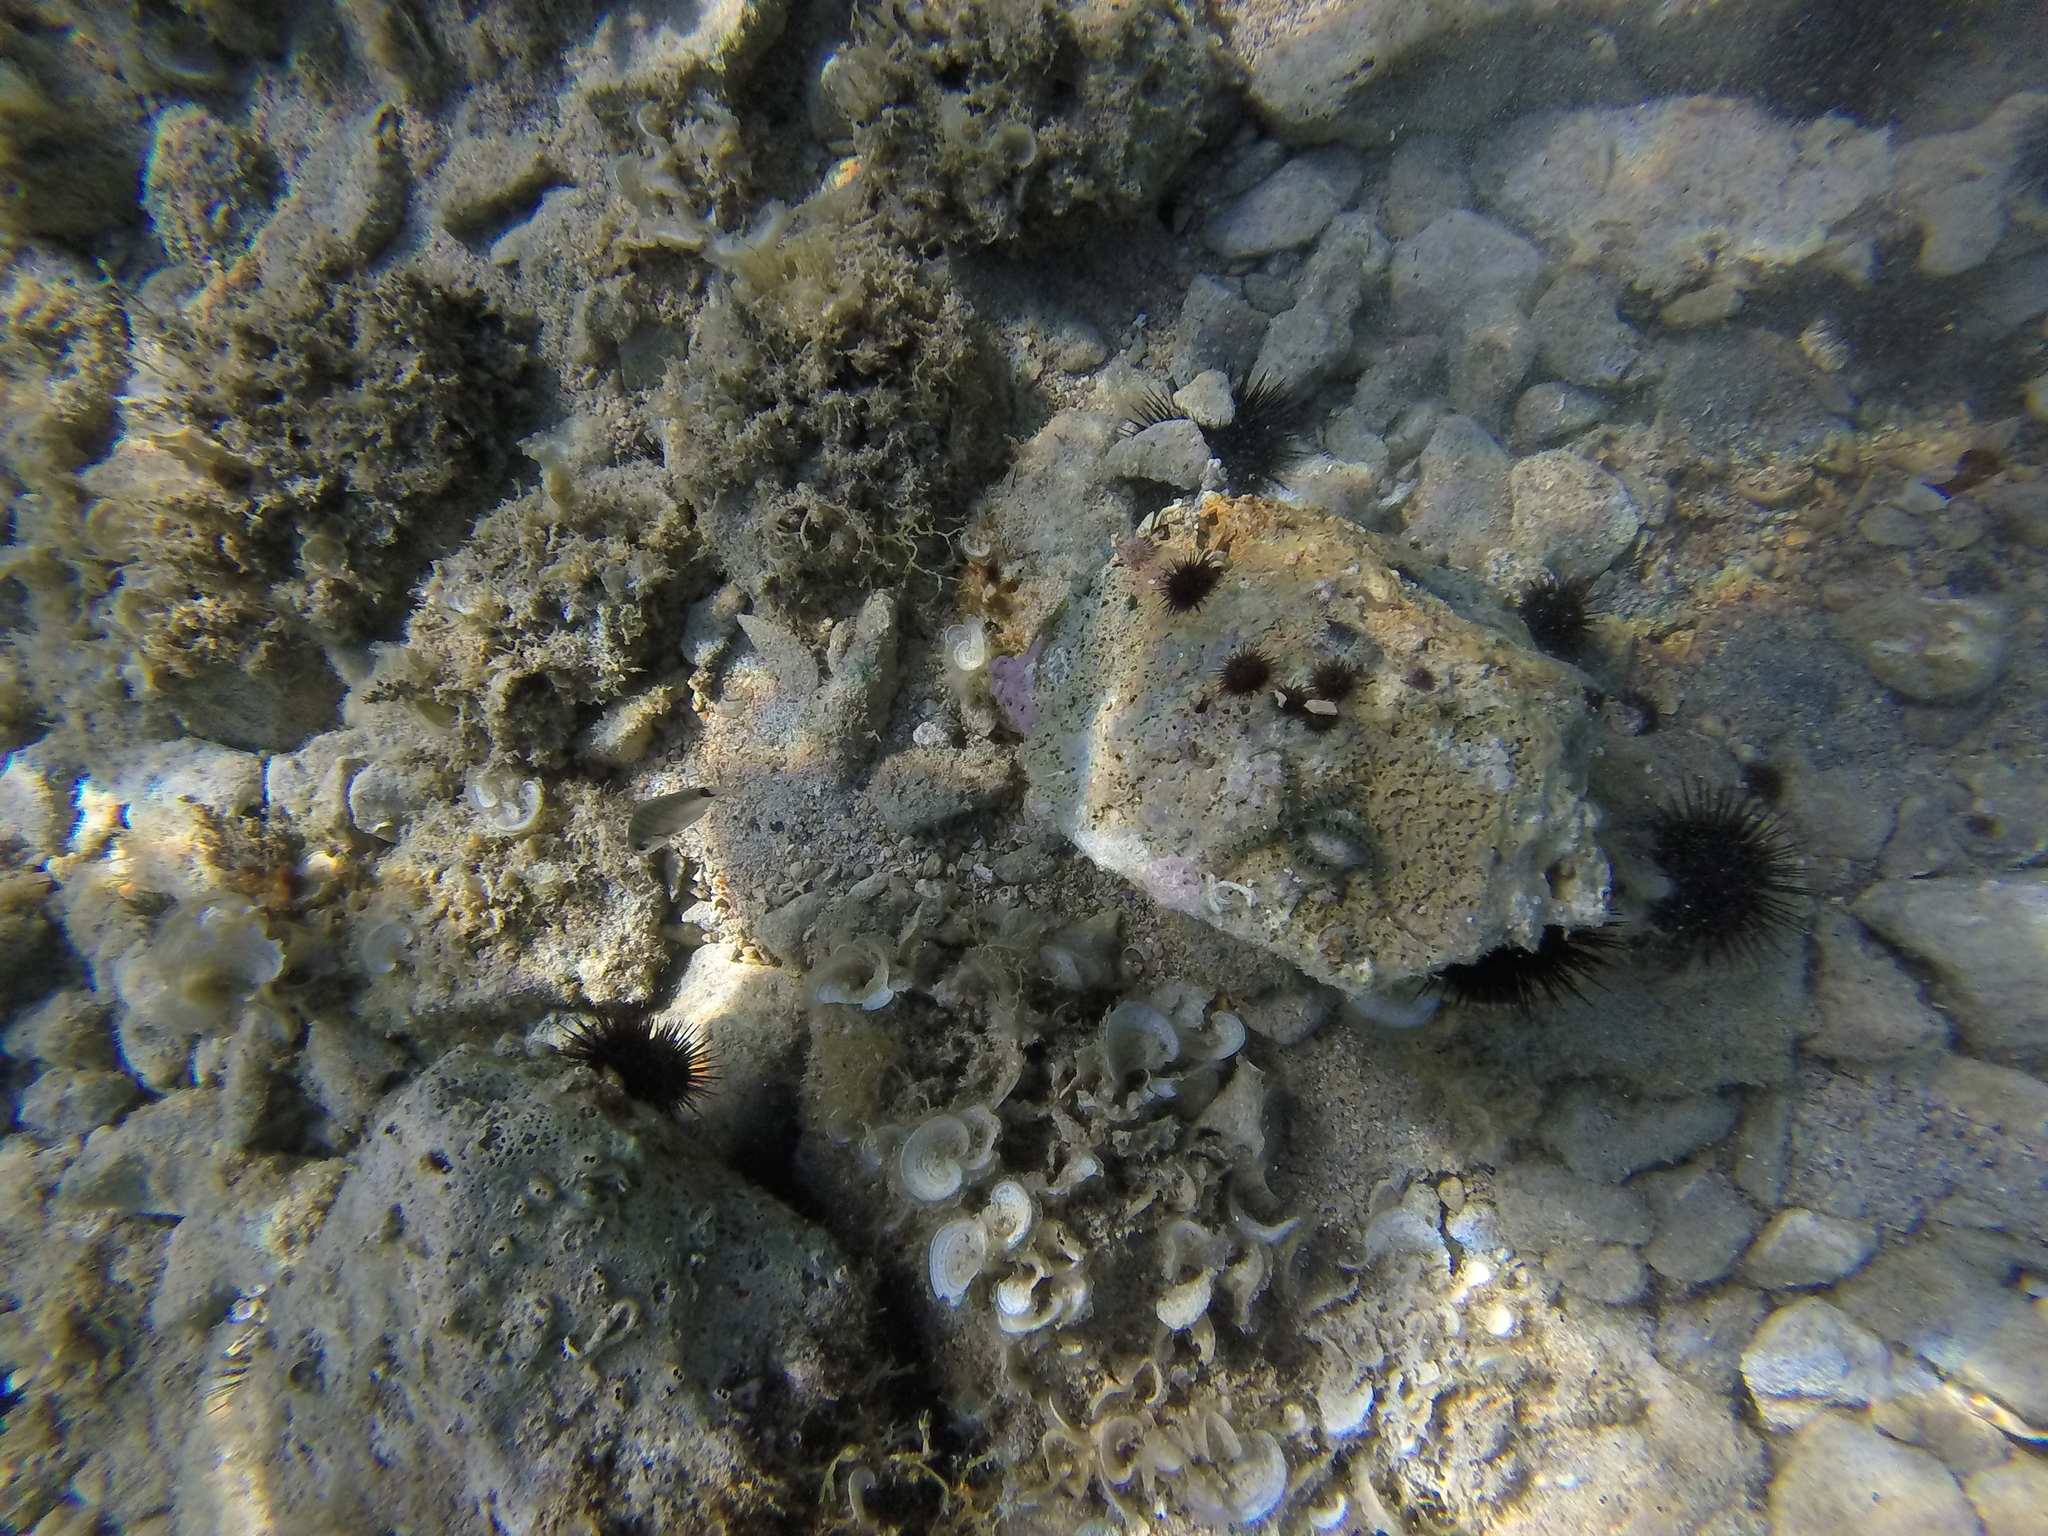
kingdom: Animalia
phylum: Echinodermata
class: Ophiuroidea
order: Amphilepidida
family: Ophiotrichidae
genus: Ophiothrix
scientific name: Ophiothrix fragilis
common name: Common brittlestar
